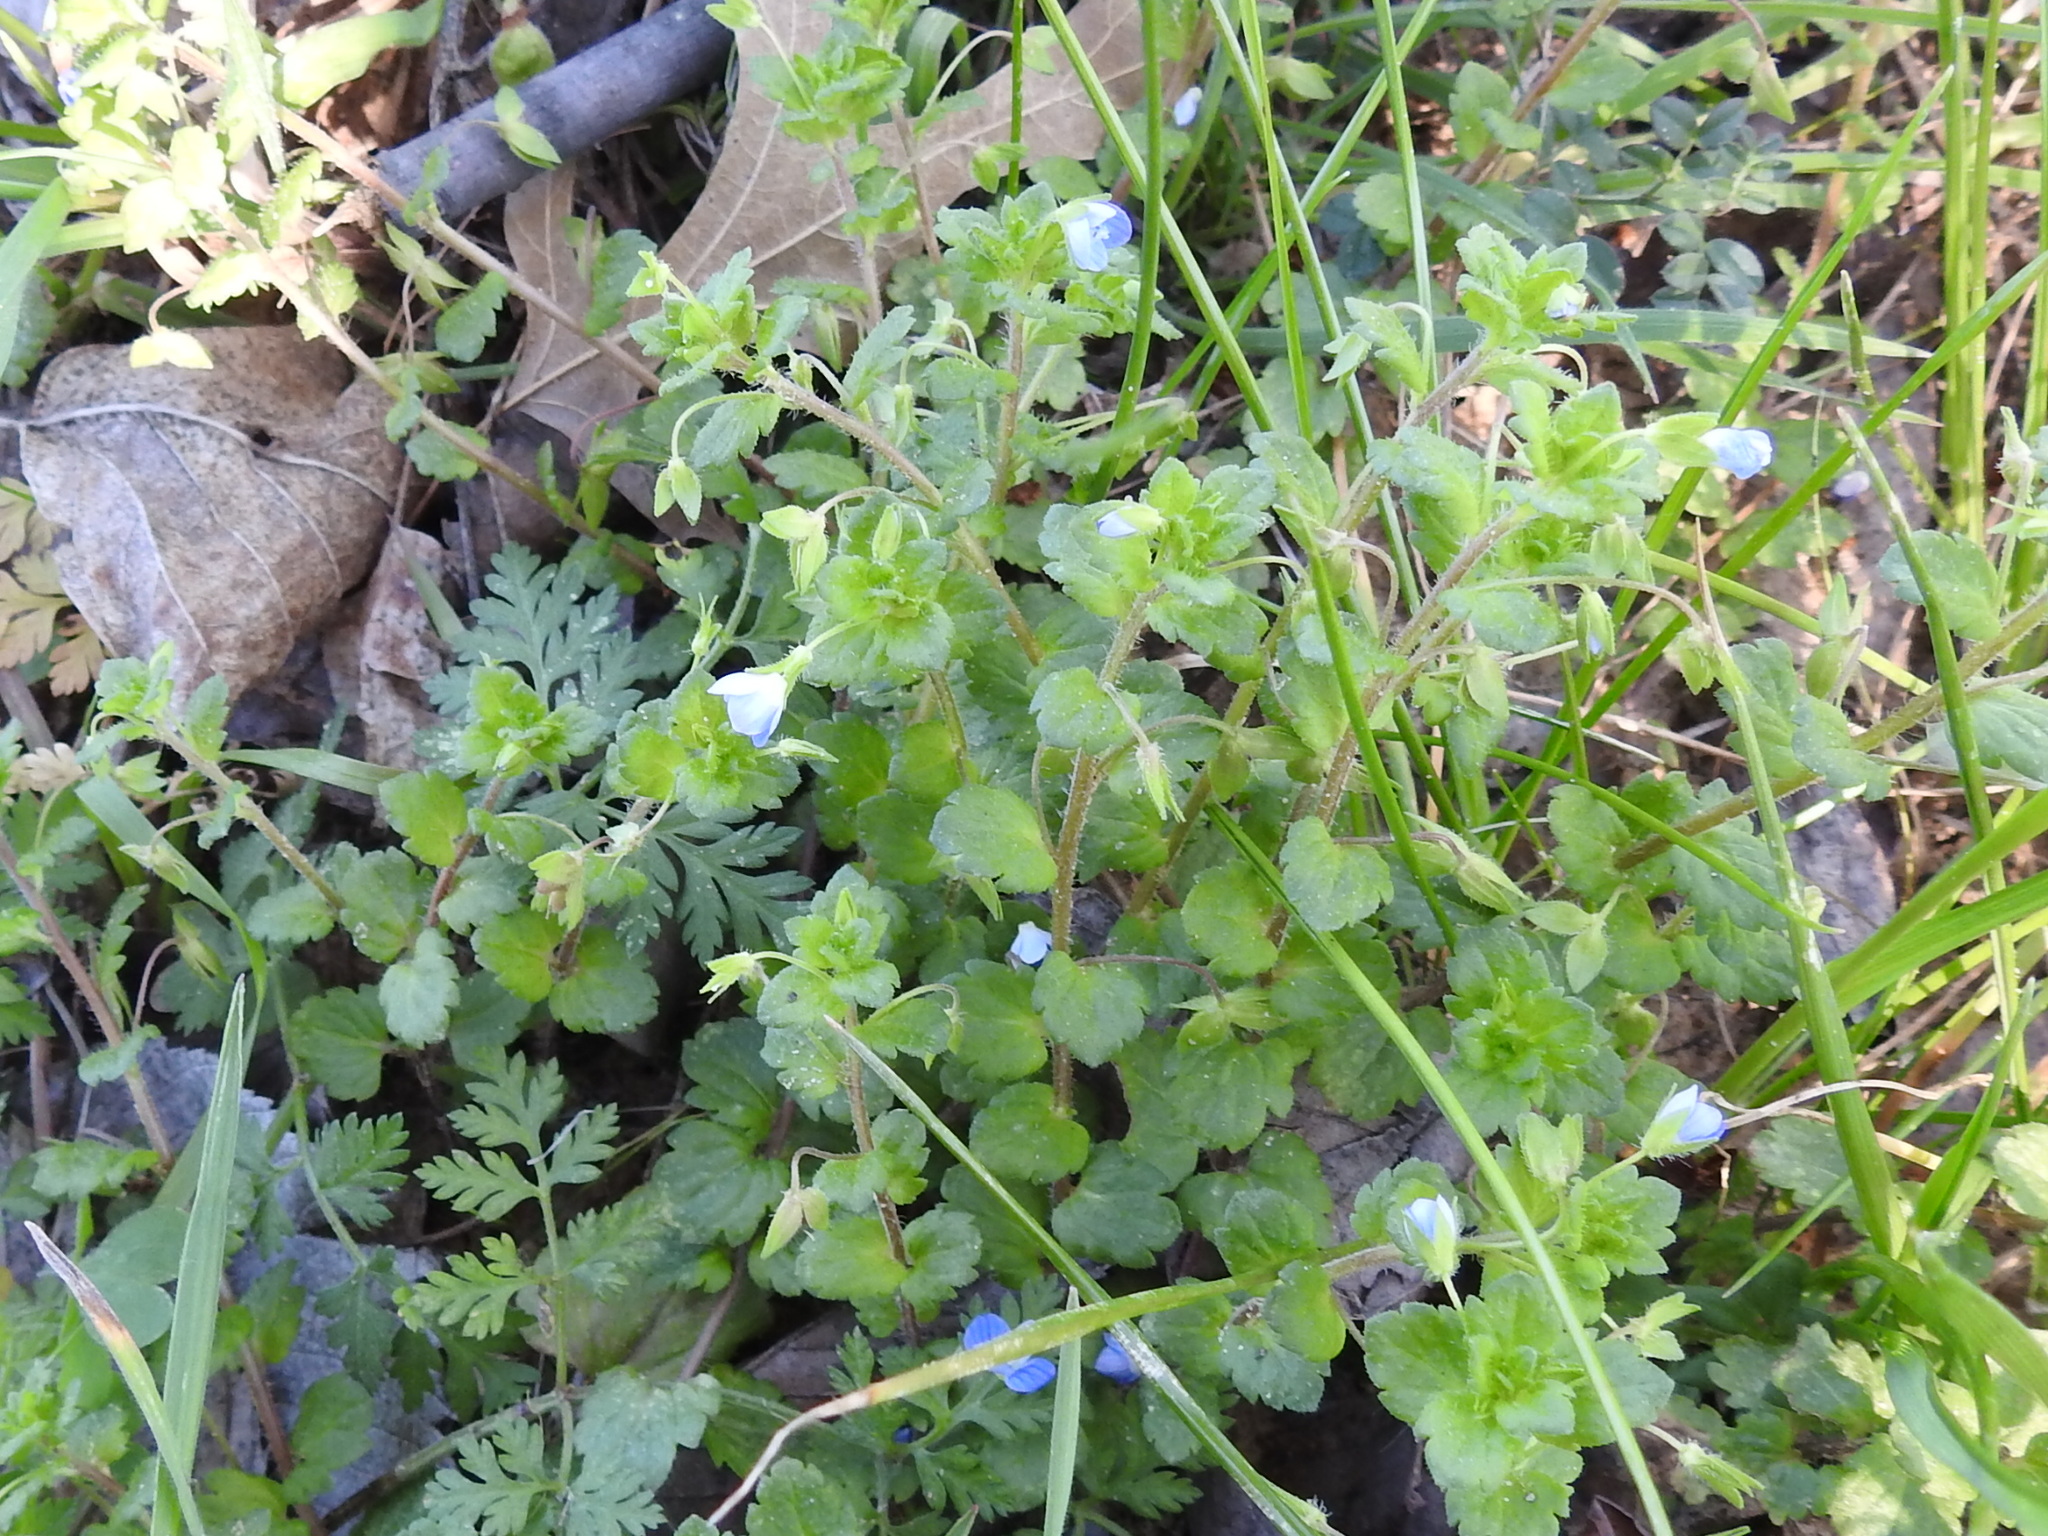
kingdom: Plantae
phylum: Tracheophyta
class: Magnoliopsida
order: Lamiales
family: Plantaginaceae
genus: Veronica
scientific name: Veronica persica
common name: Common field-speedwell
